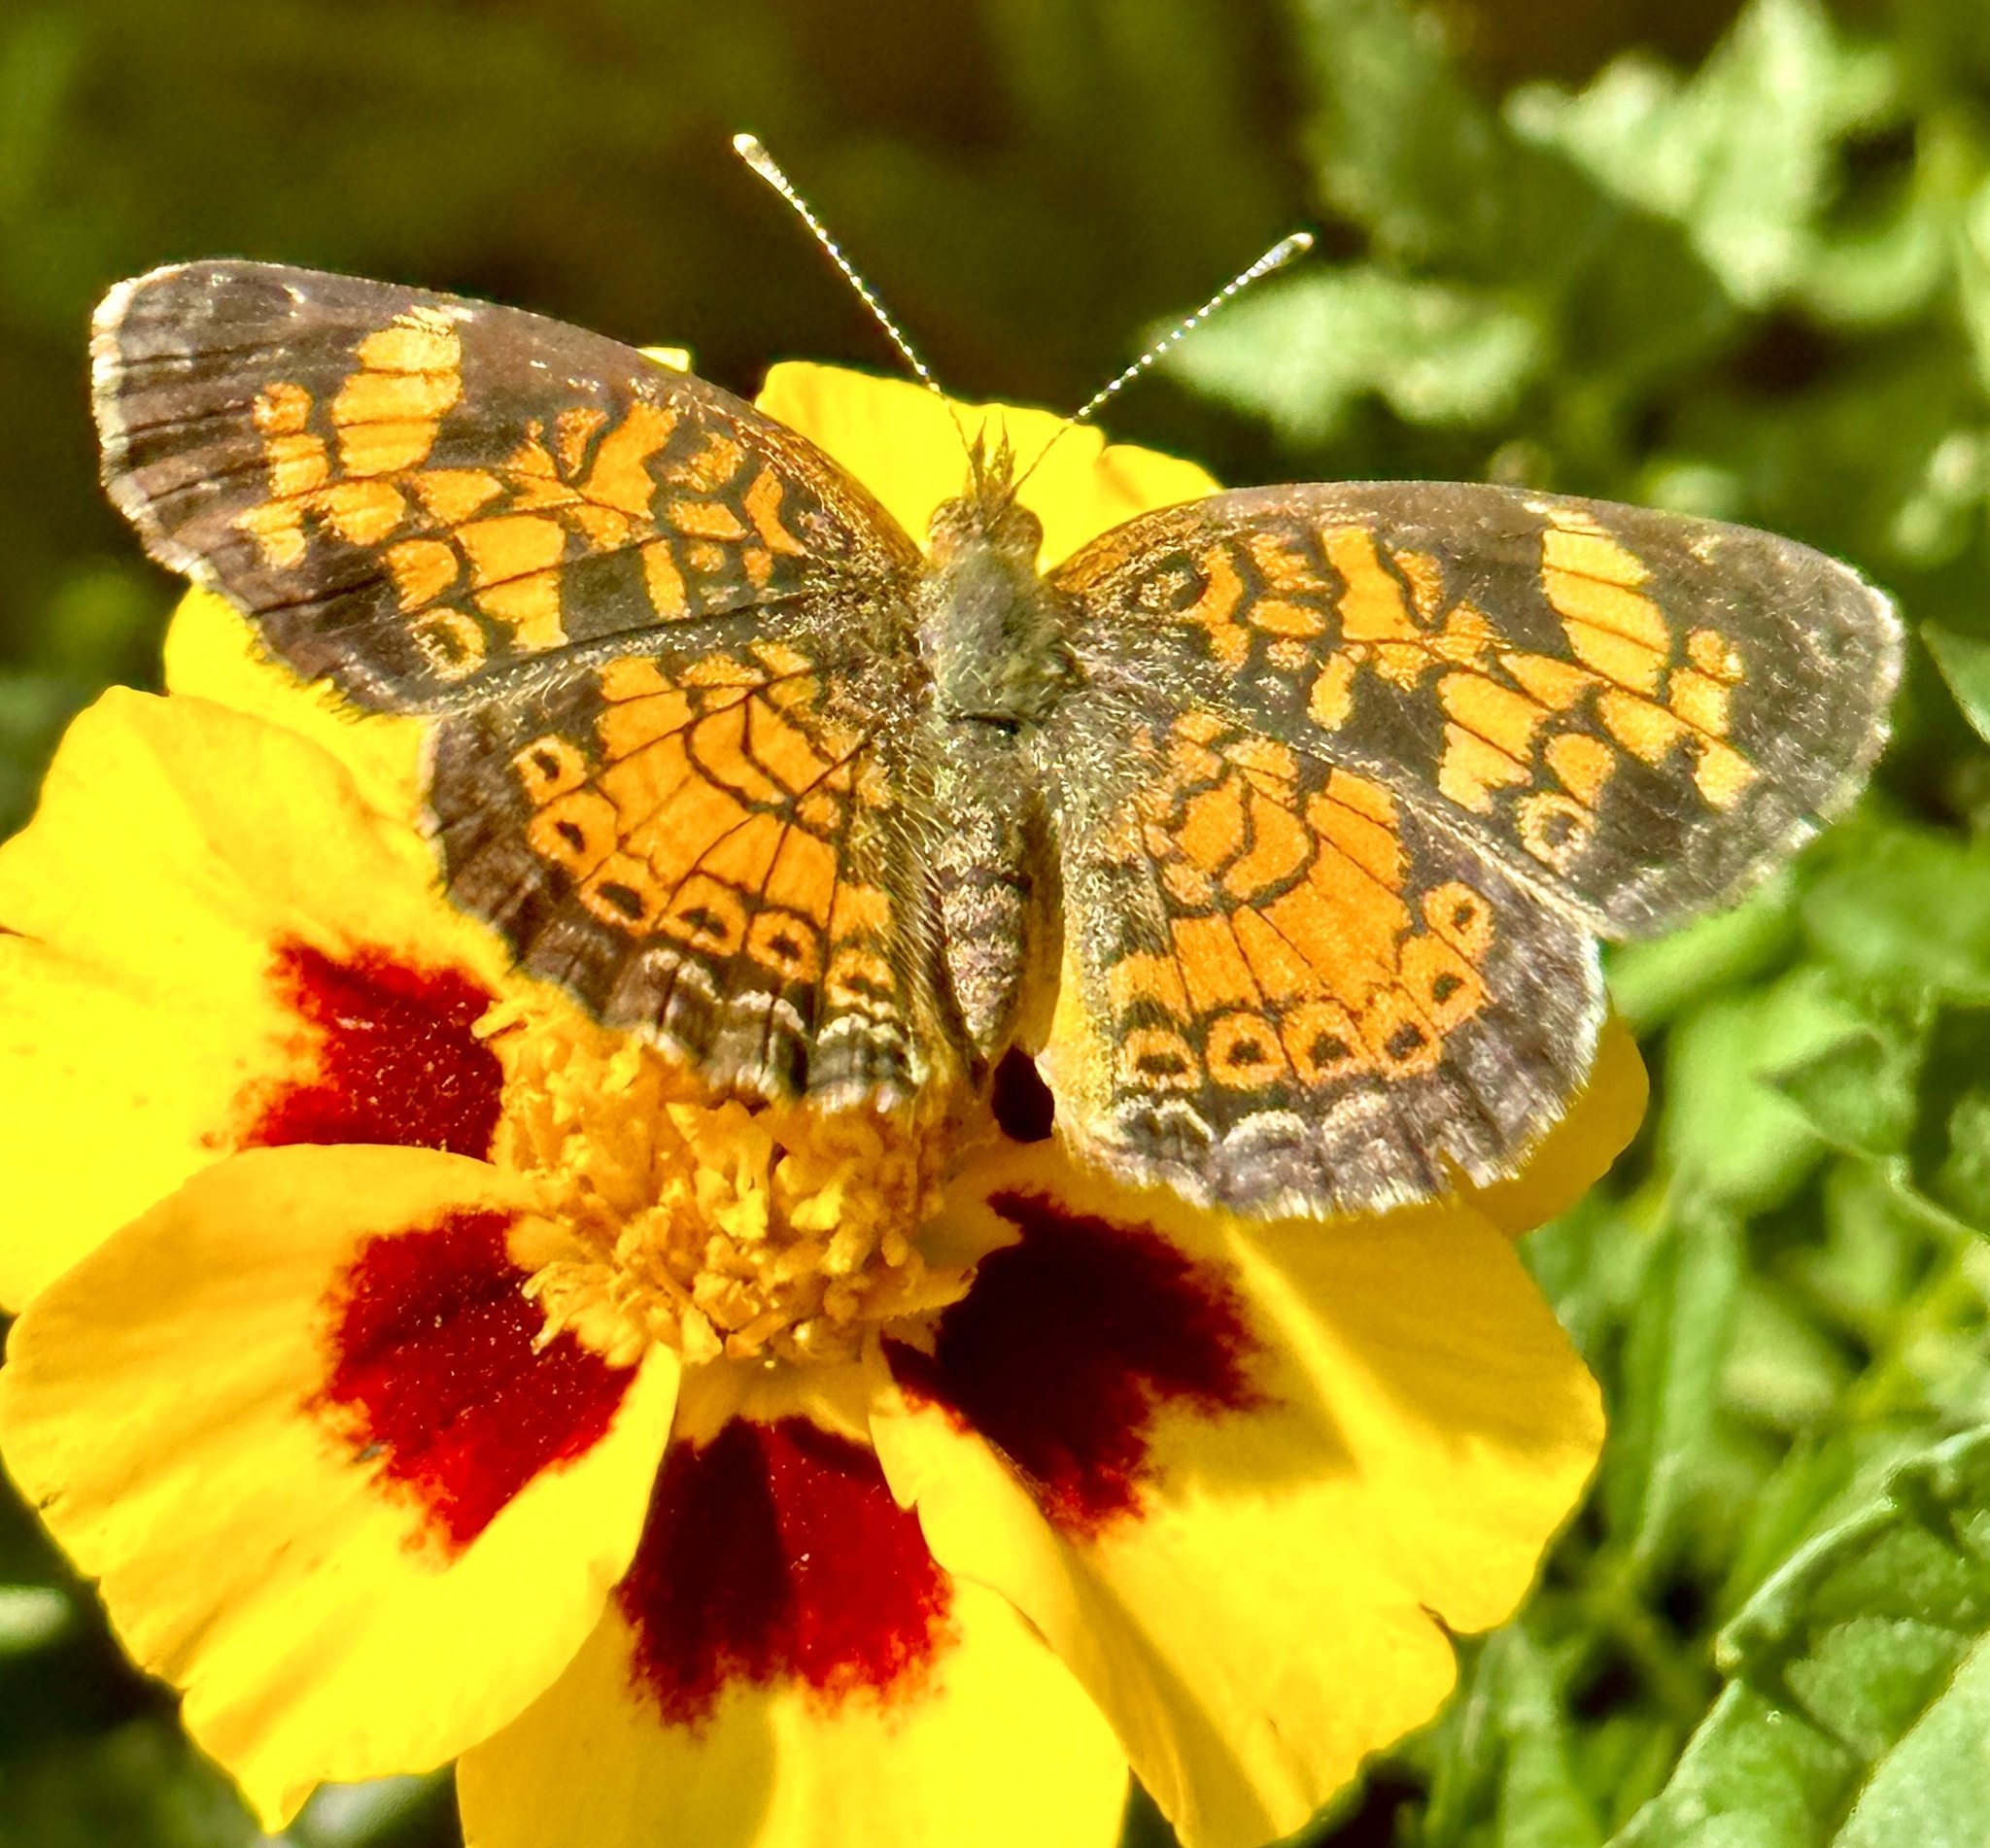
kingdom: Animalia
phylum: Arthropoda
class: Insecta
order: Lepidoptera
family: Nymphalidae
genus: Phyciodes
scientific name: Phyciodes tharos
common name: Pearl crescent
